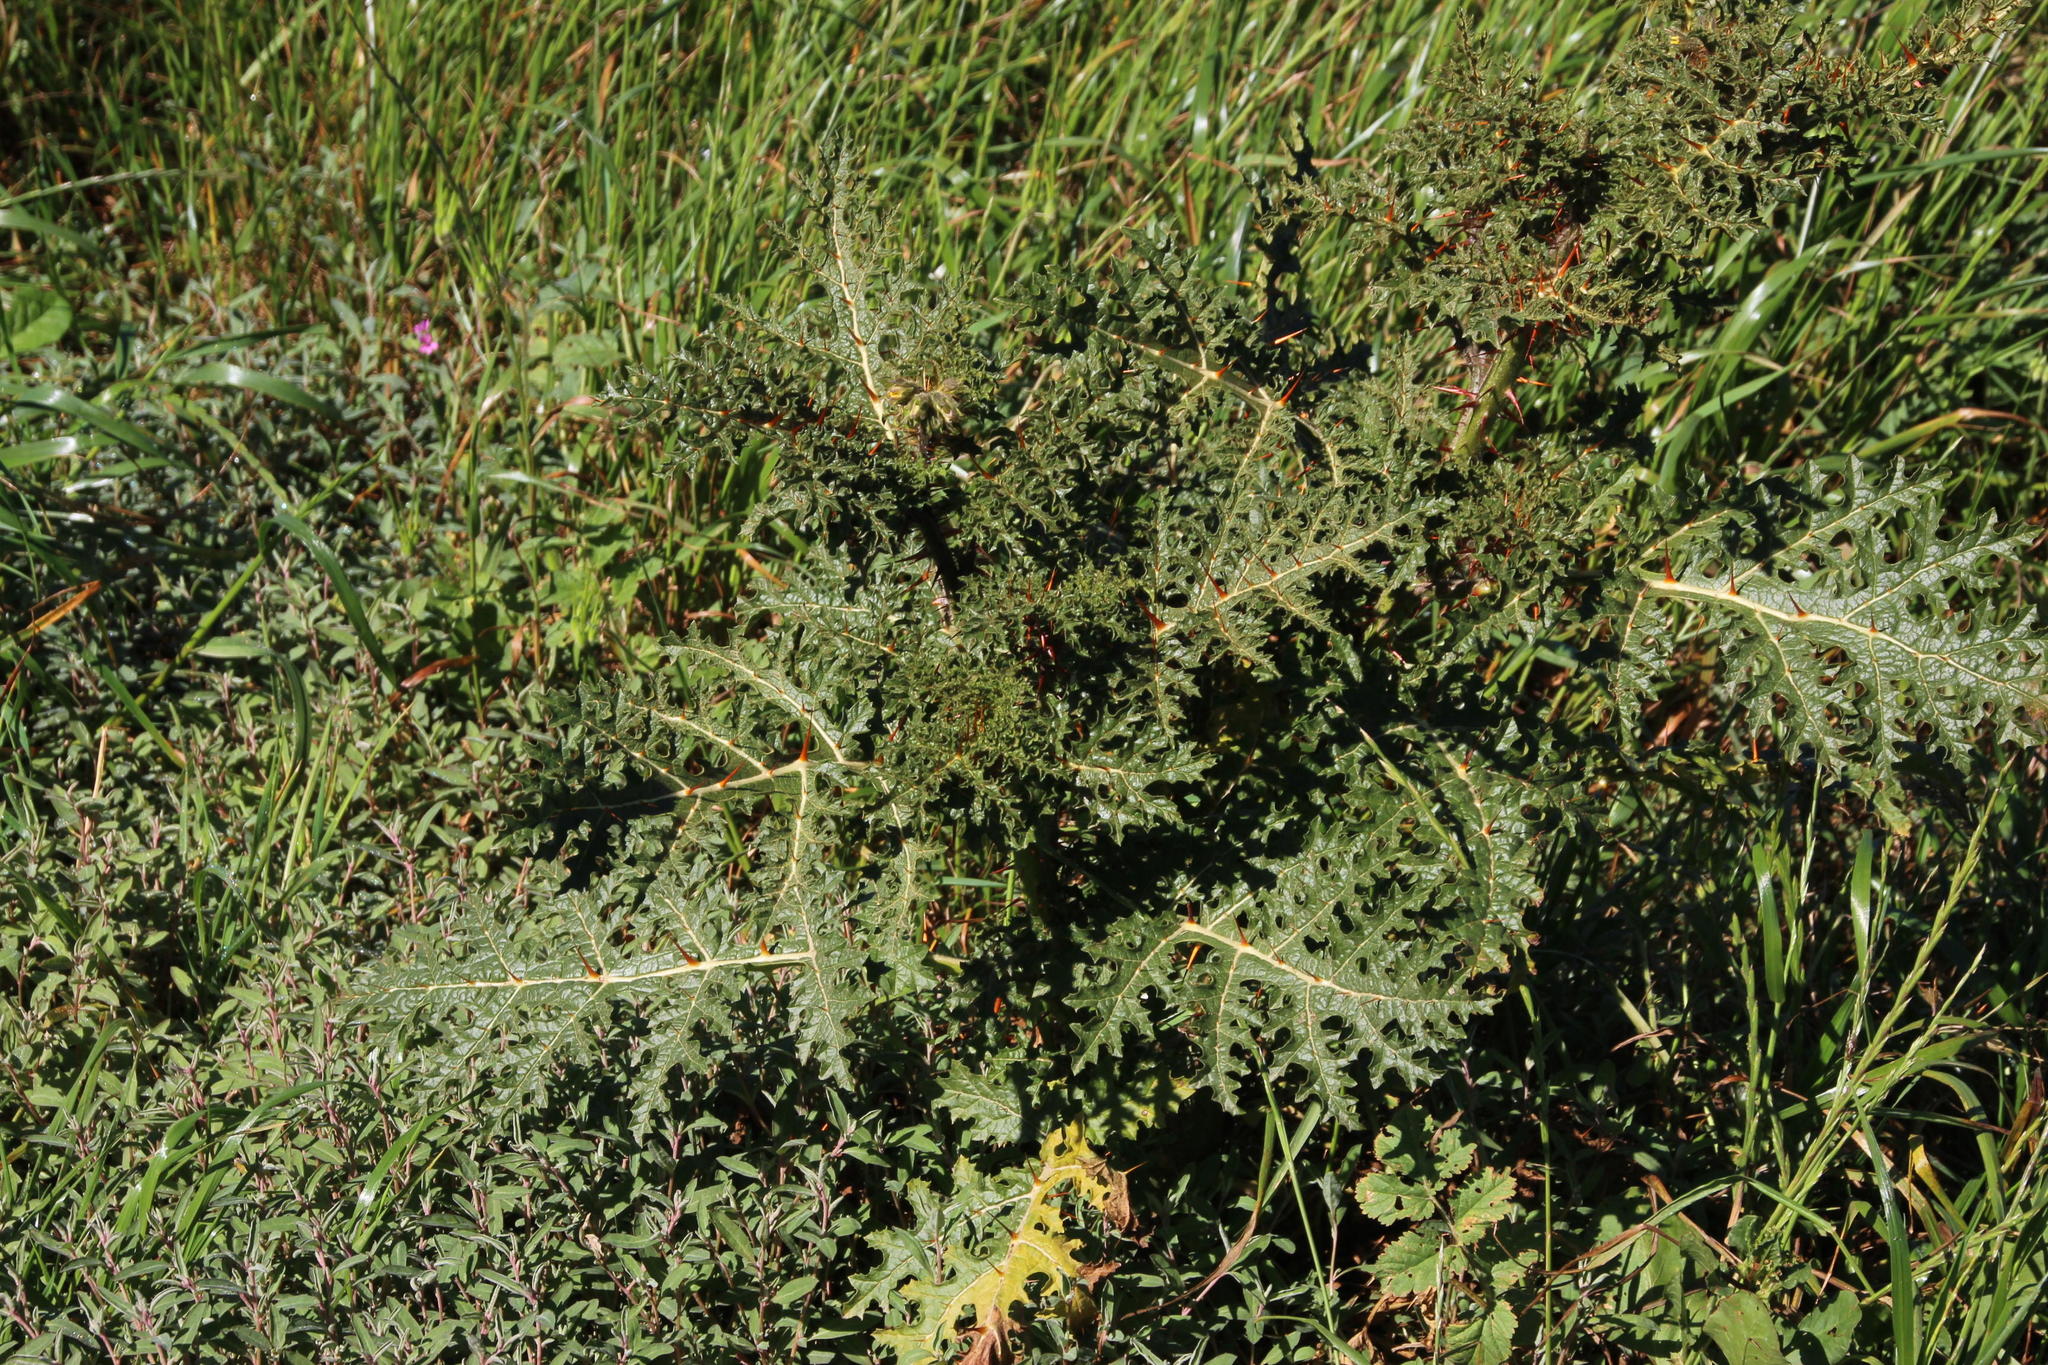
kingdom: Plantae
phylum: Tracheophyta
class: Magnoliopsida
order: Solanales
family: Solanaceae
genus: Solanum
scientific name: Solanum sisymbriifolium
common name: Red buffalo-bur
